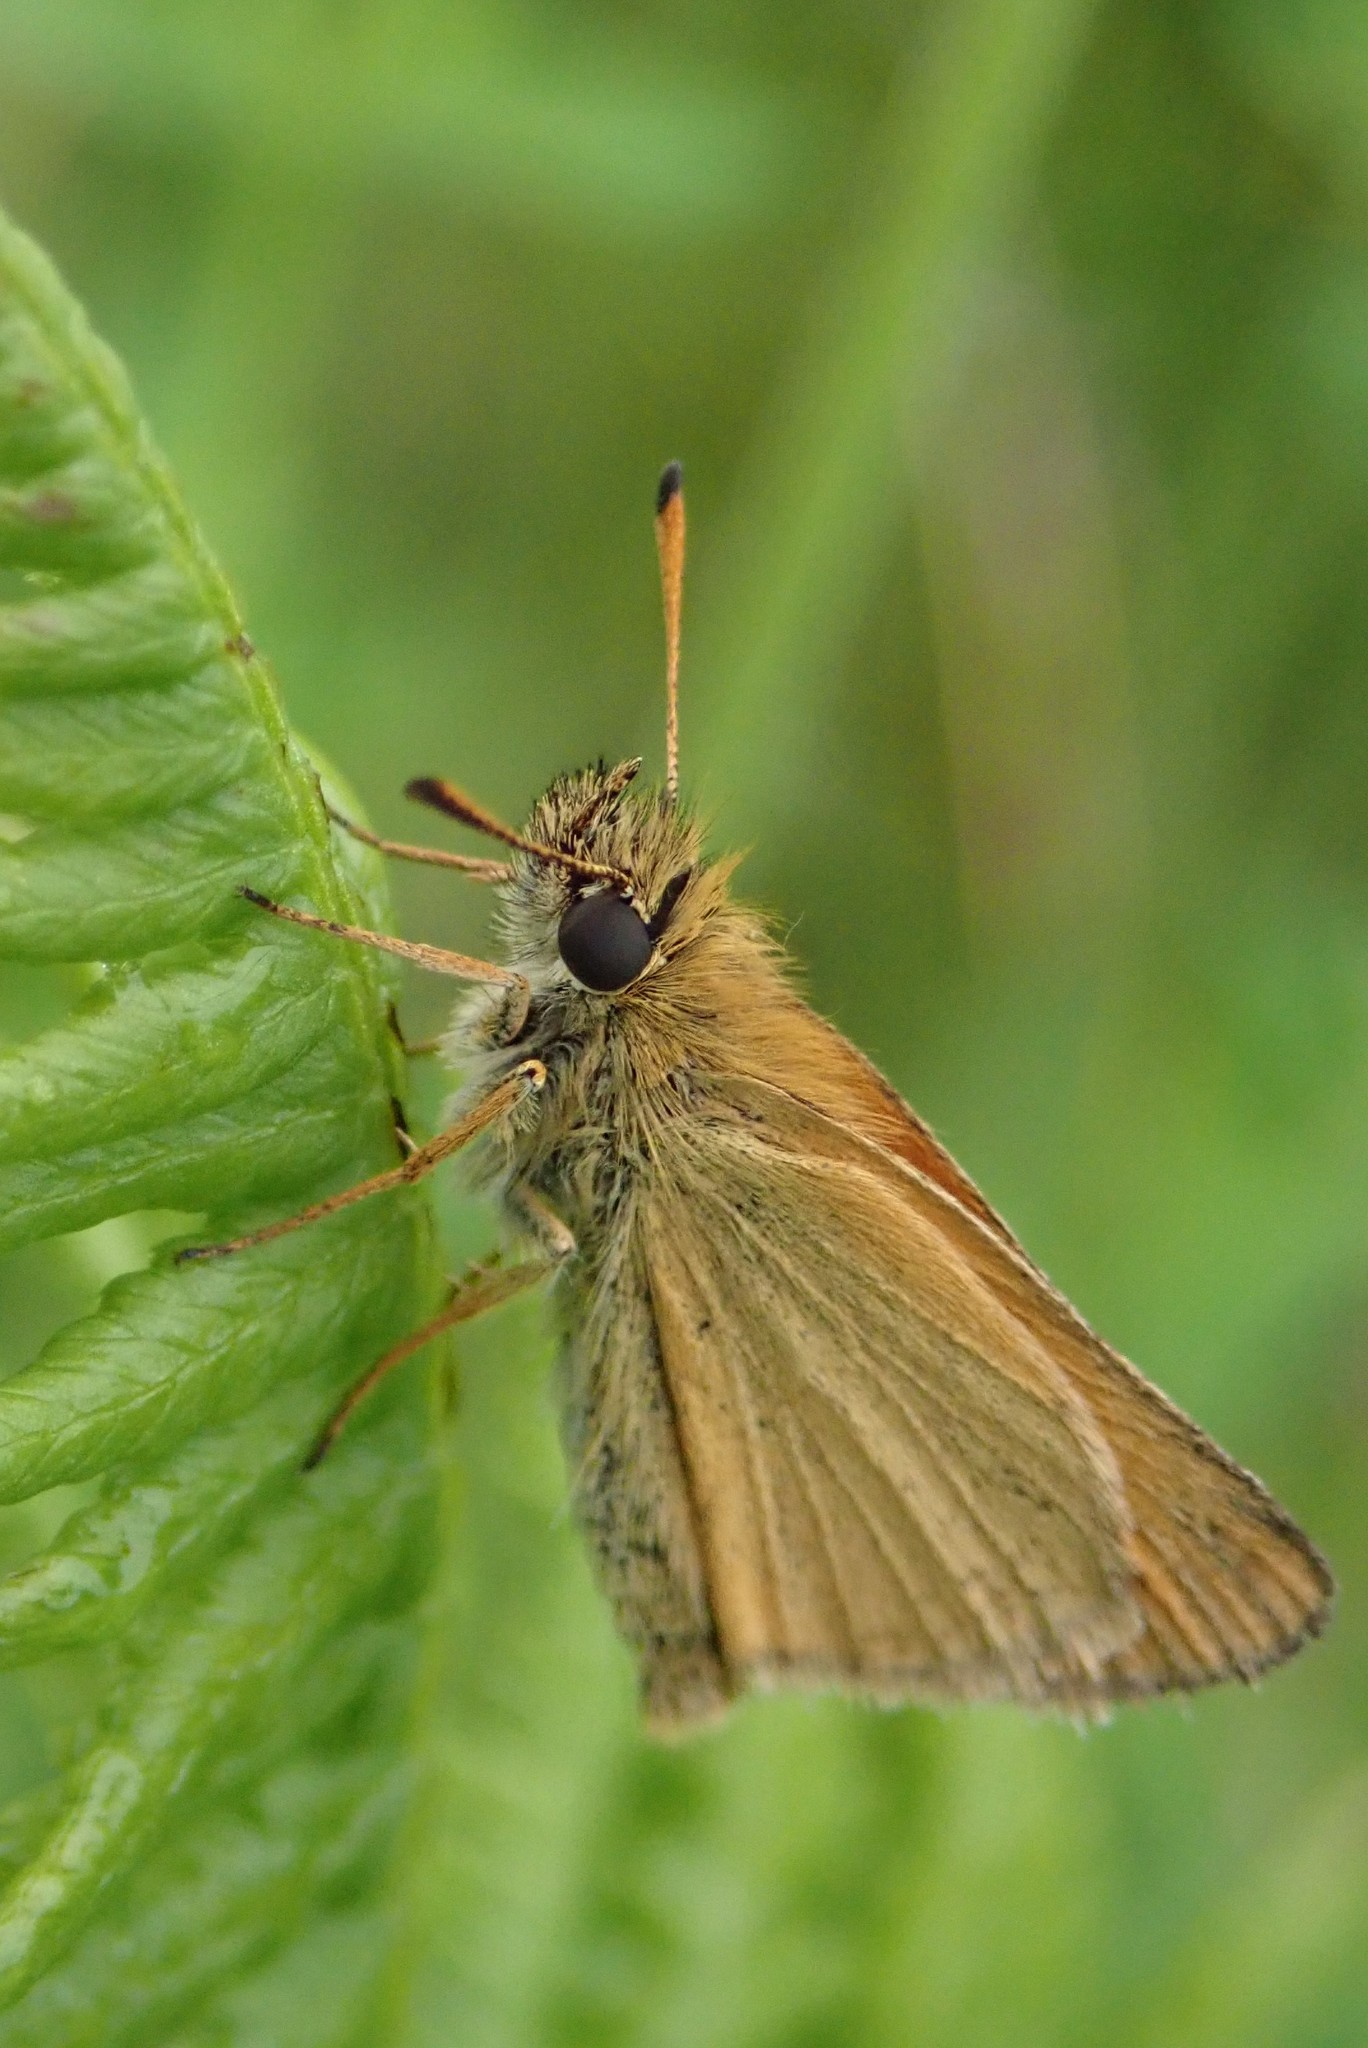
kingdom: Animalia
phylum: Arthropoda
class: Insecta
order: Lepidoptera
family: Hesperiidae
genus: Thymelicus
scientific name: Thymelicus lineola
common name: Essex skipper
